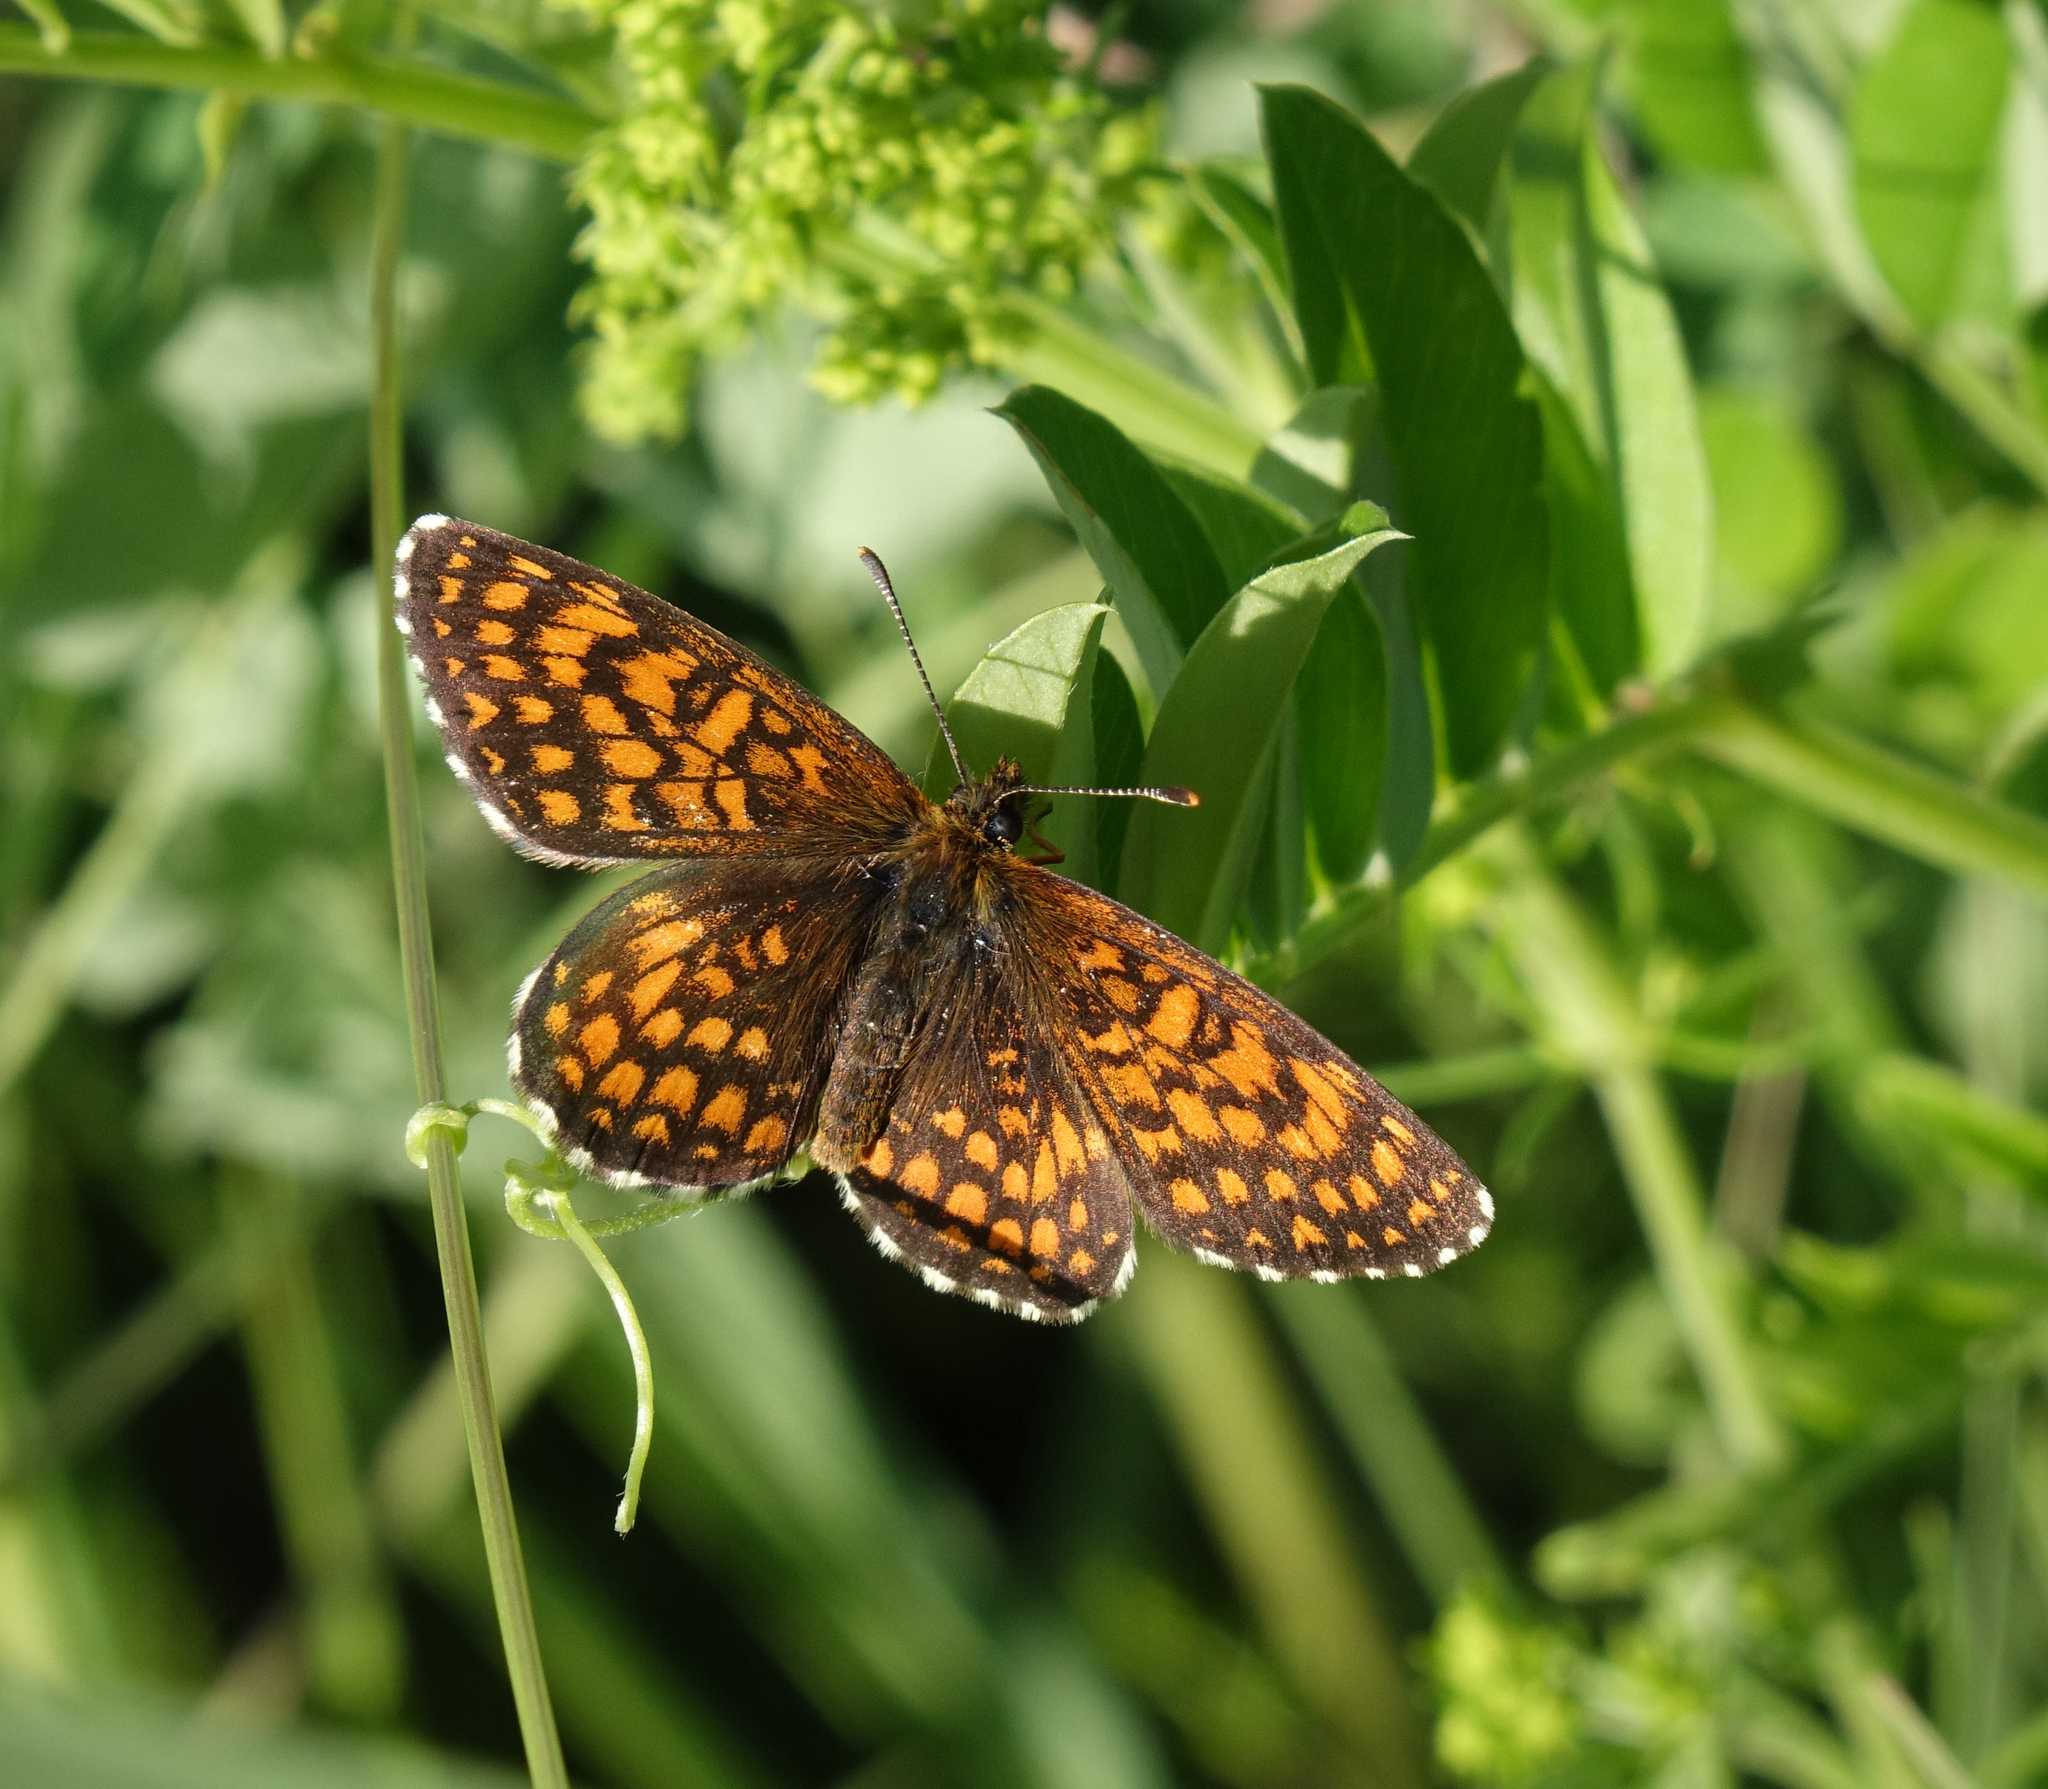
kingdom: Animalia
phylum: Arthropoda
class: Insecta
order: Lepidoptera
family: Nymphalidae
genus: Melitaea
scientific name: Melitaea
